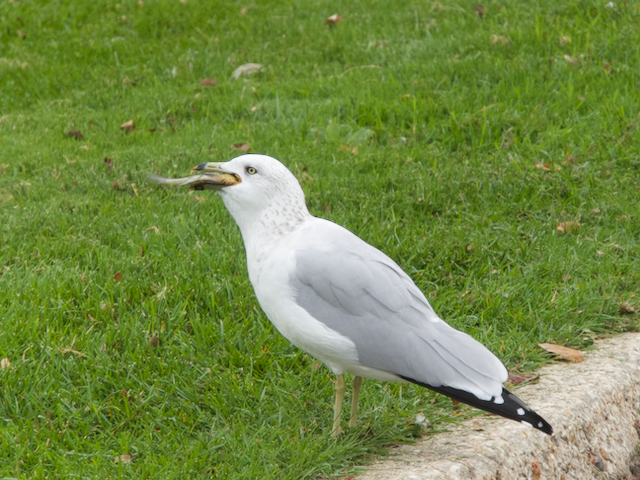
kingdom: Animalia
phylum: Chordata
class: Aves
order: Charadriiformes
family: Laridae
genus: Larus
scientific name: Larus delawarensis
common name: Ring-billed gull
